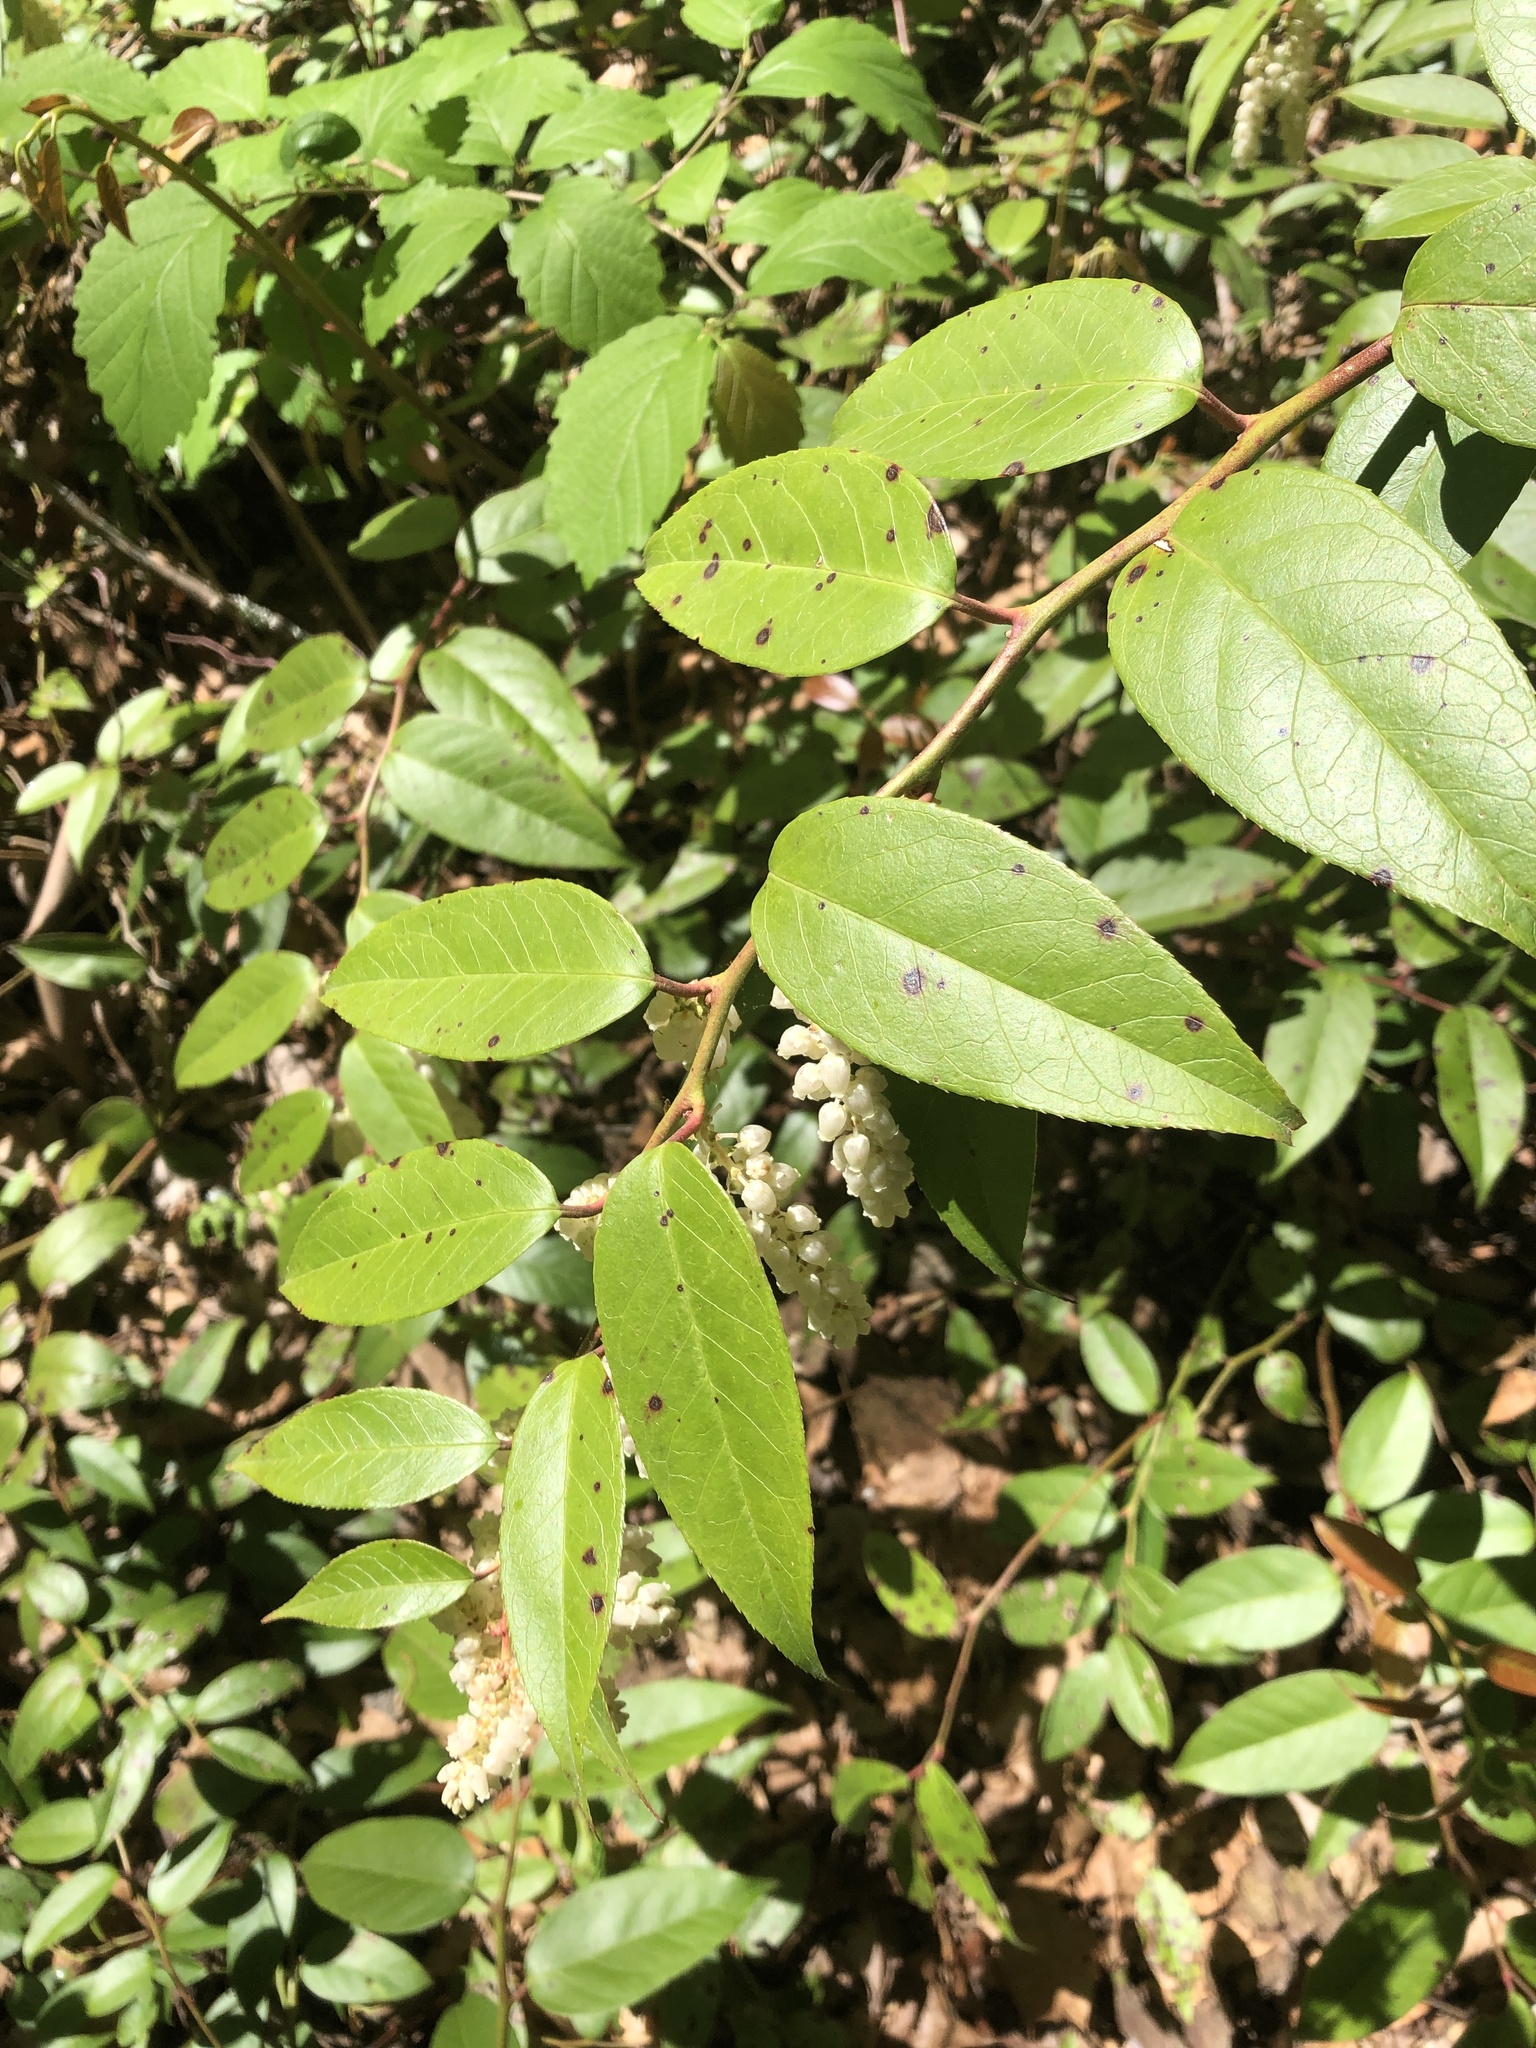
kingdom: Plantae
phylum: Tracheophyta
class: Magnoliopsida
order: Ericales
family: Ericaceae
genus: Leucothoe
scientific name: Leucothoe fontanesiana
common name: Fetterbush
